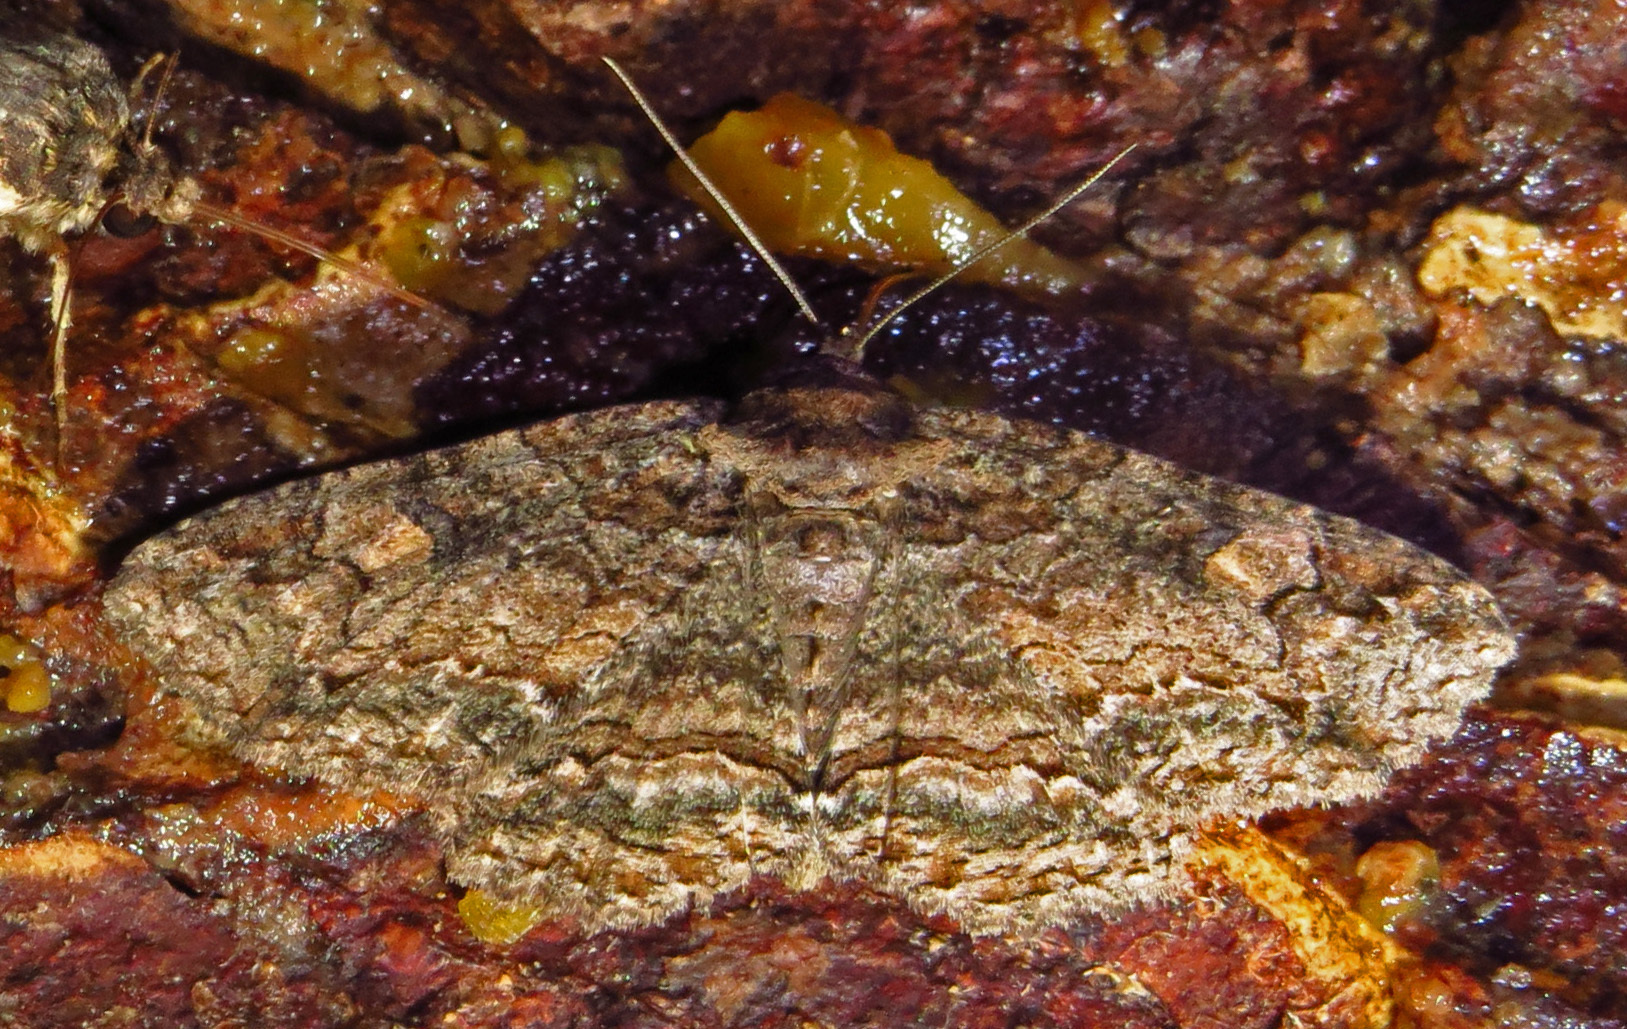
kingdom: Animalia
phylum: Arthropoda
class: Insecta
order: Lepidoptera
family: Erebidae
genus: Zale
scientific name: Zale galbanata
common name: Maple zale
